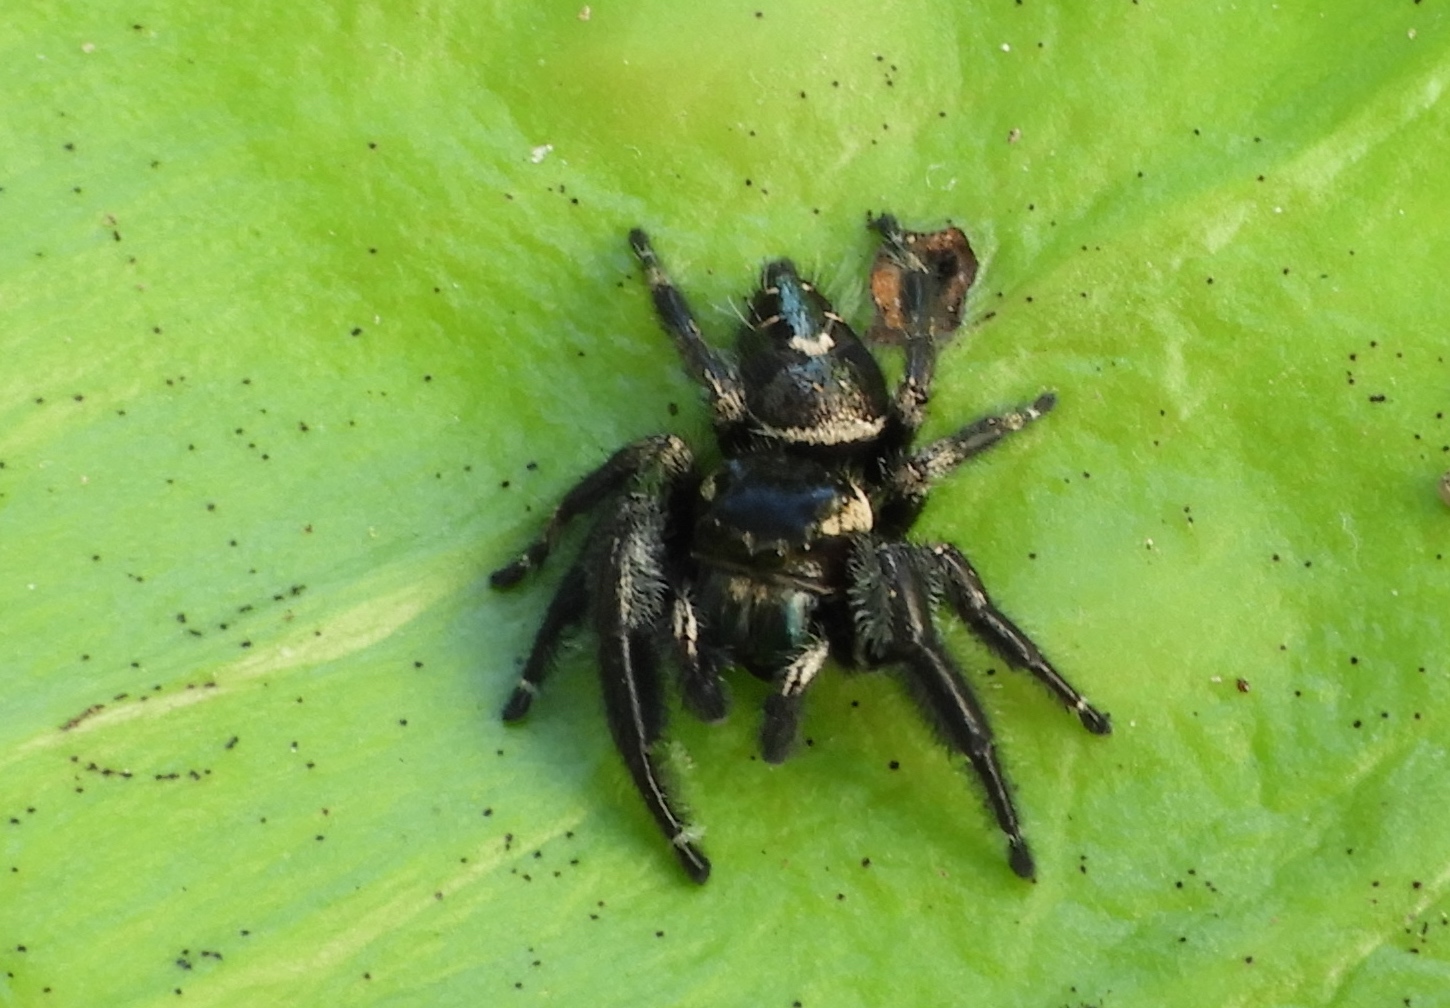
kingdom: Animalia
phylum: Arthropoda
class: Arachnida
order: Araneae
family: Salticidae
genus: Phidippus
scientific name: Phidippus maddisoni
